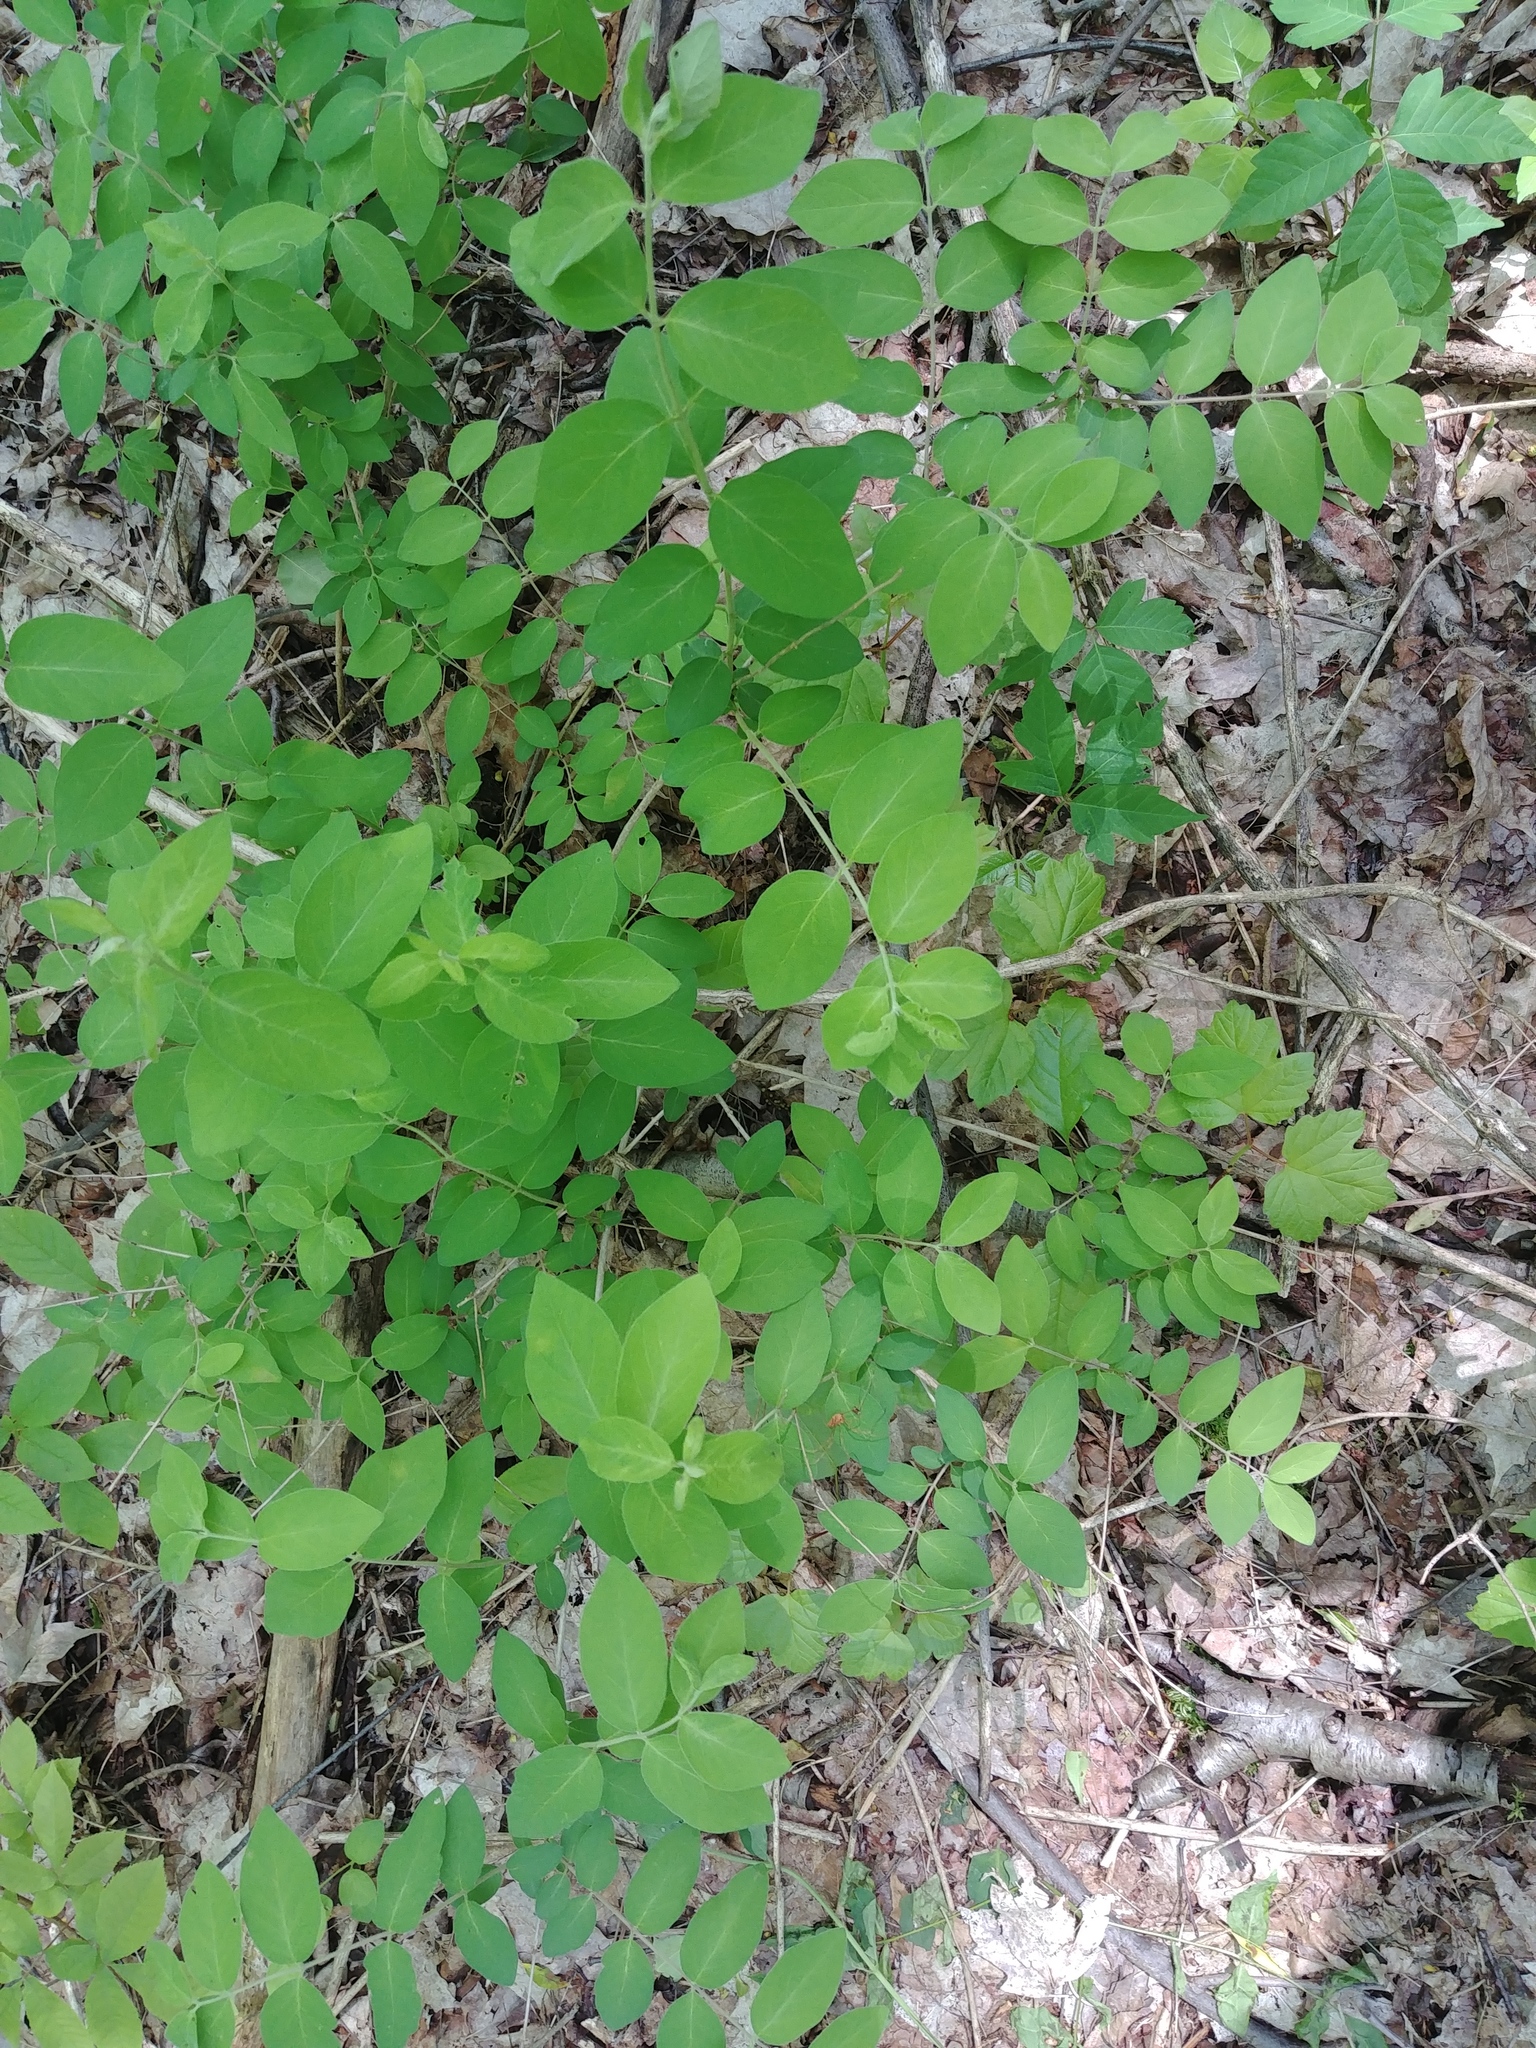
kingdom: Plantae
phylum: Tracheophyta
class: Magnoliopsida
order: Dipsacales
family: Caprifoliaceae
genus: Lonicera
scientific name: Lonicera morrowii
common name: Morrow's honeysuckle
